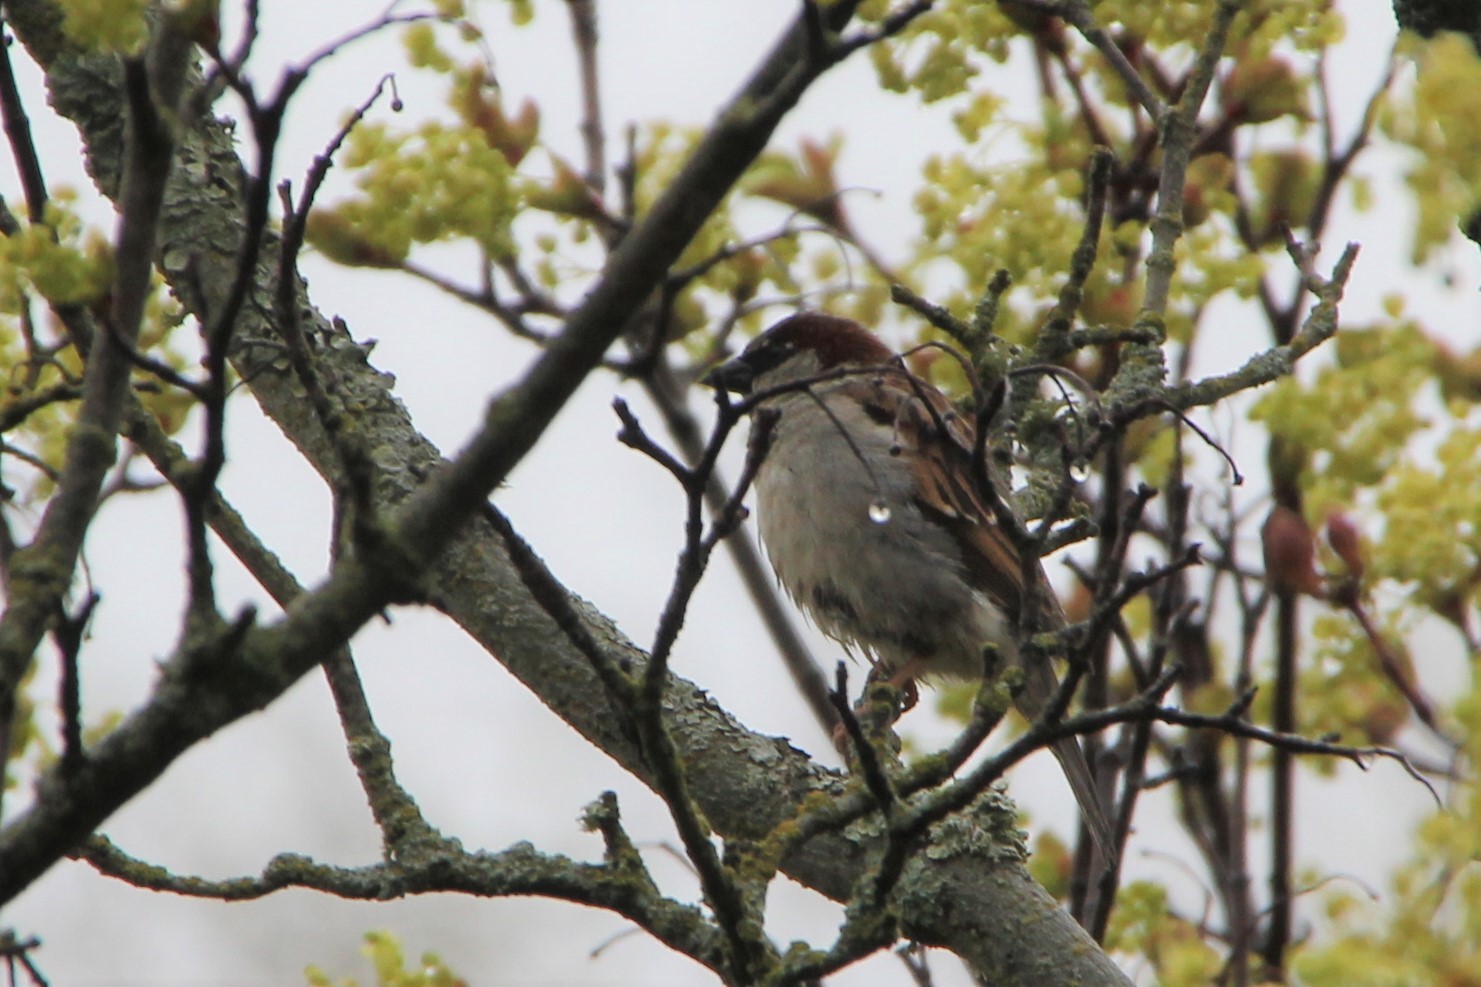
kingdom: Animalia
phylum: Chordata
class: Aves
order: Passeriformes
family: Passeridae
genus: Passer
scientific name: Passer domesticus
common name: House sparrow
